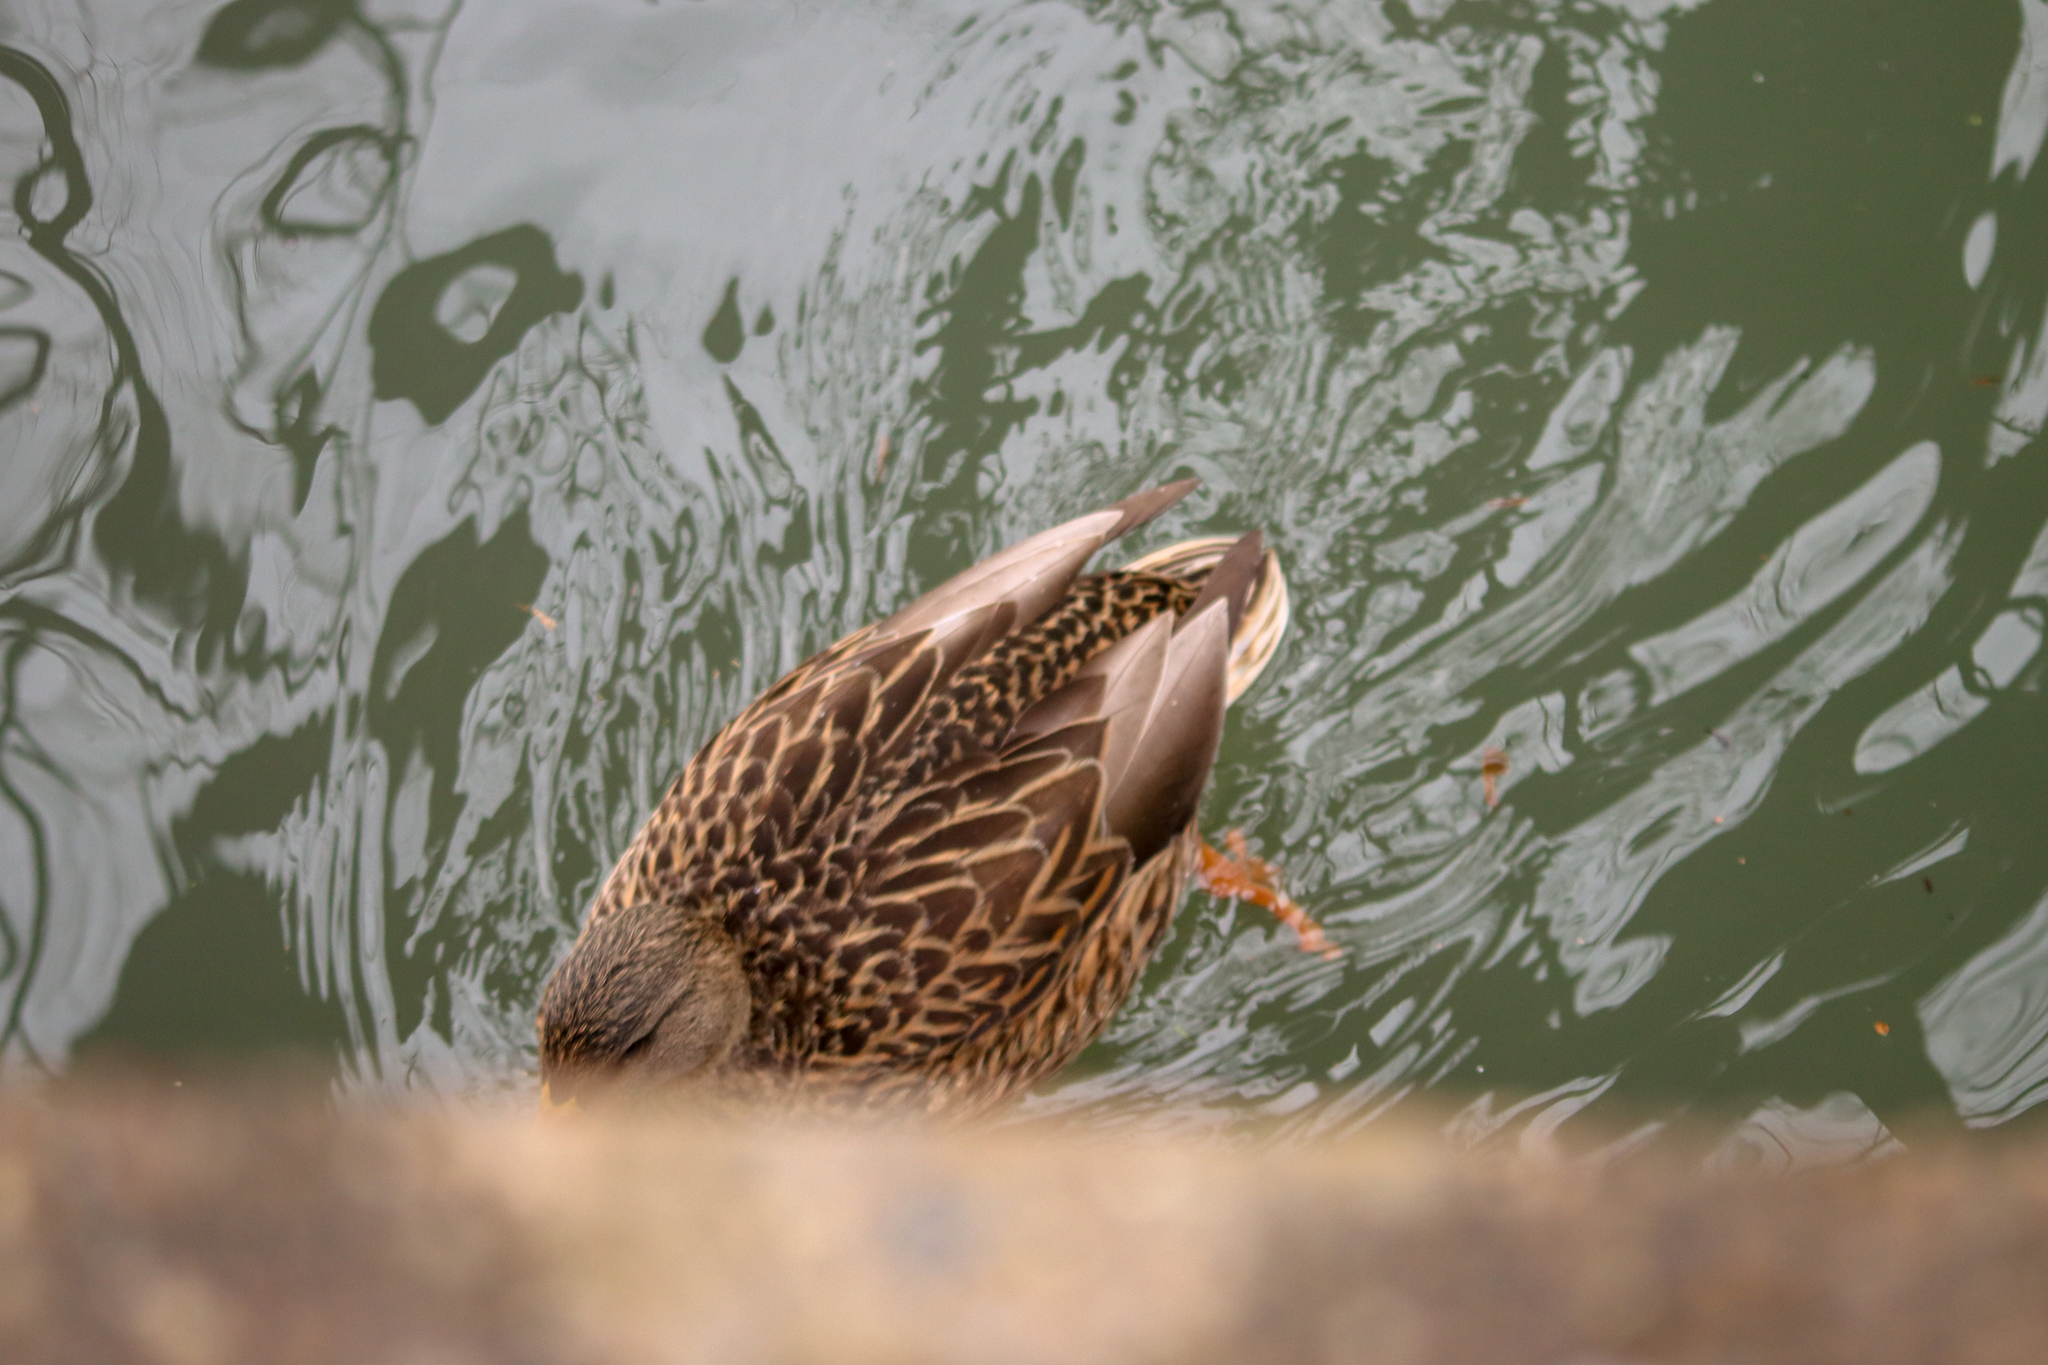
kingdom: Animalia
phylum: Chordata
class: Aves
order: Anseriformes
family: Anatidae
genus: Anas
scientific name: Anas platyrhynchos
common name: Mallard
